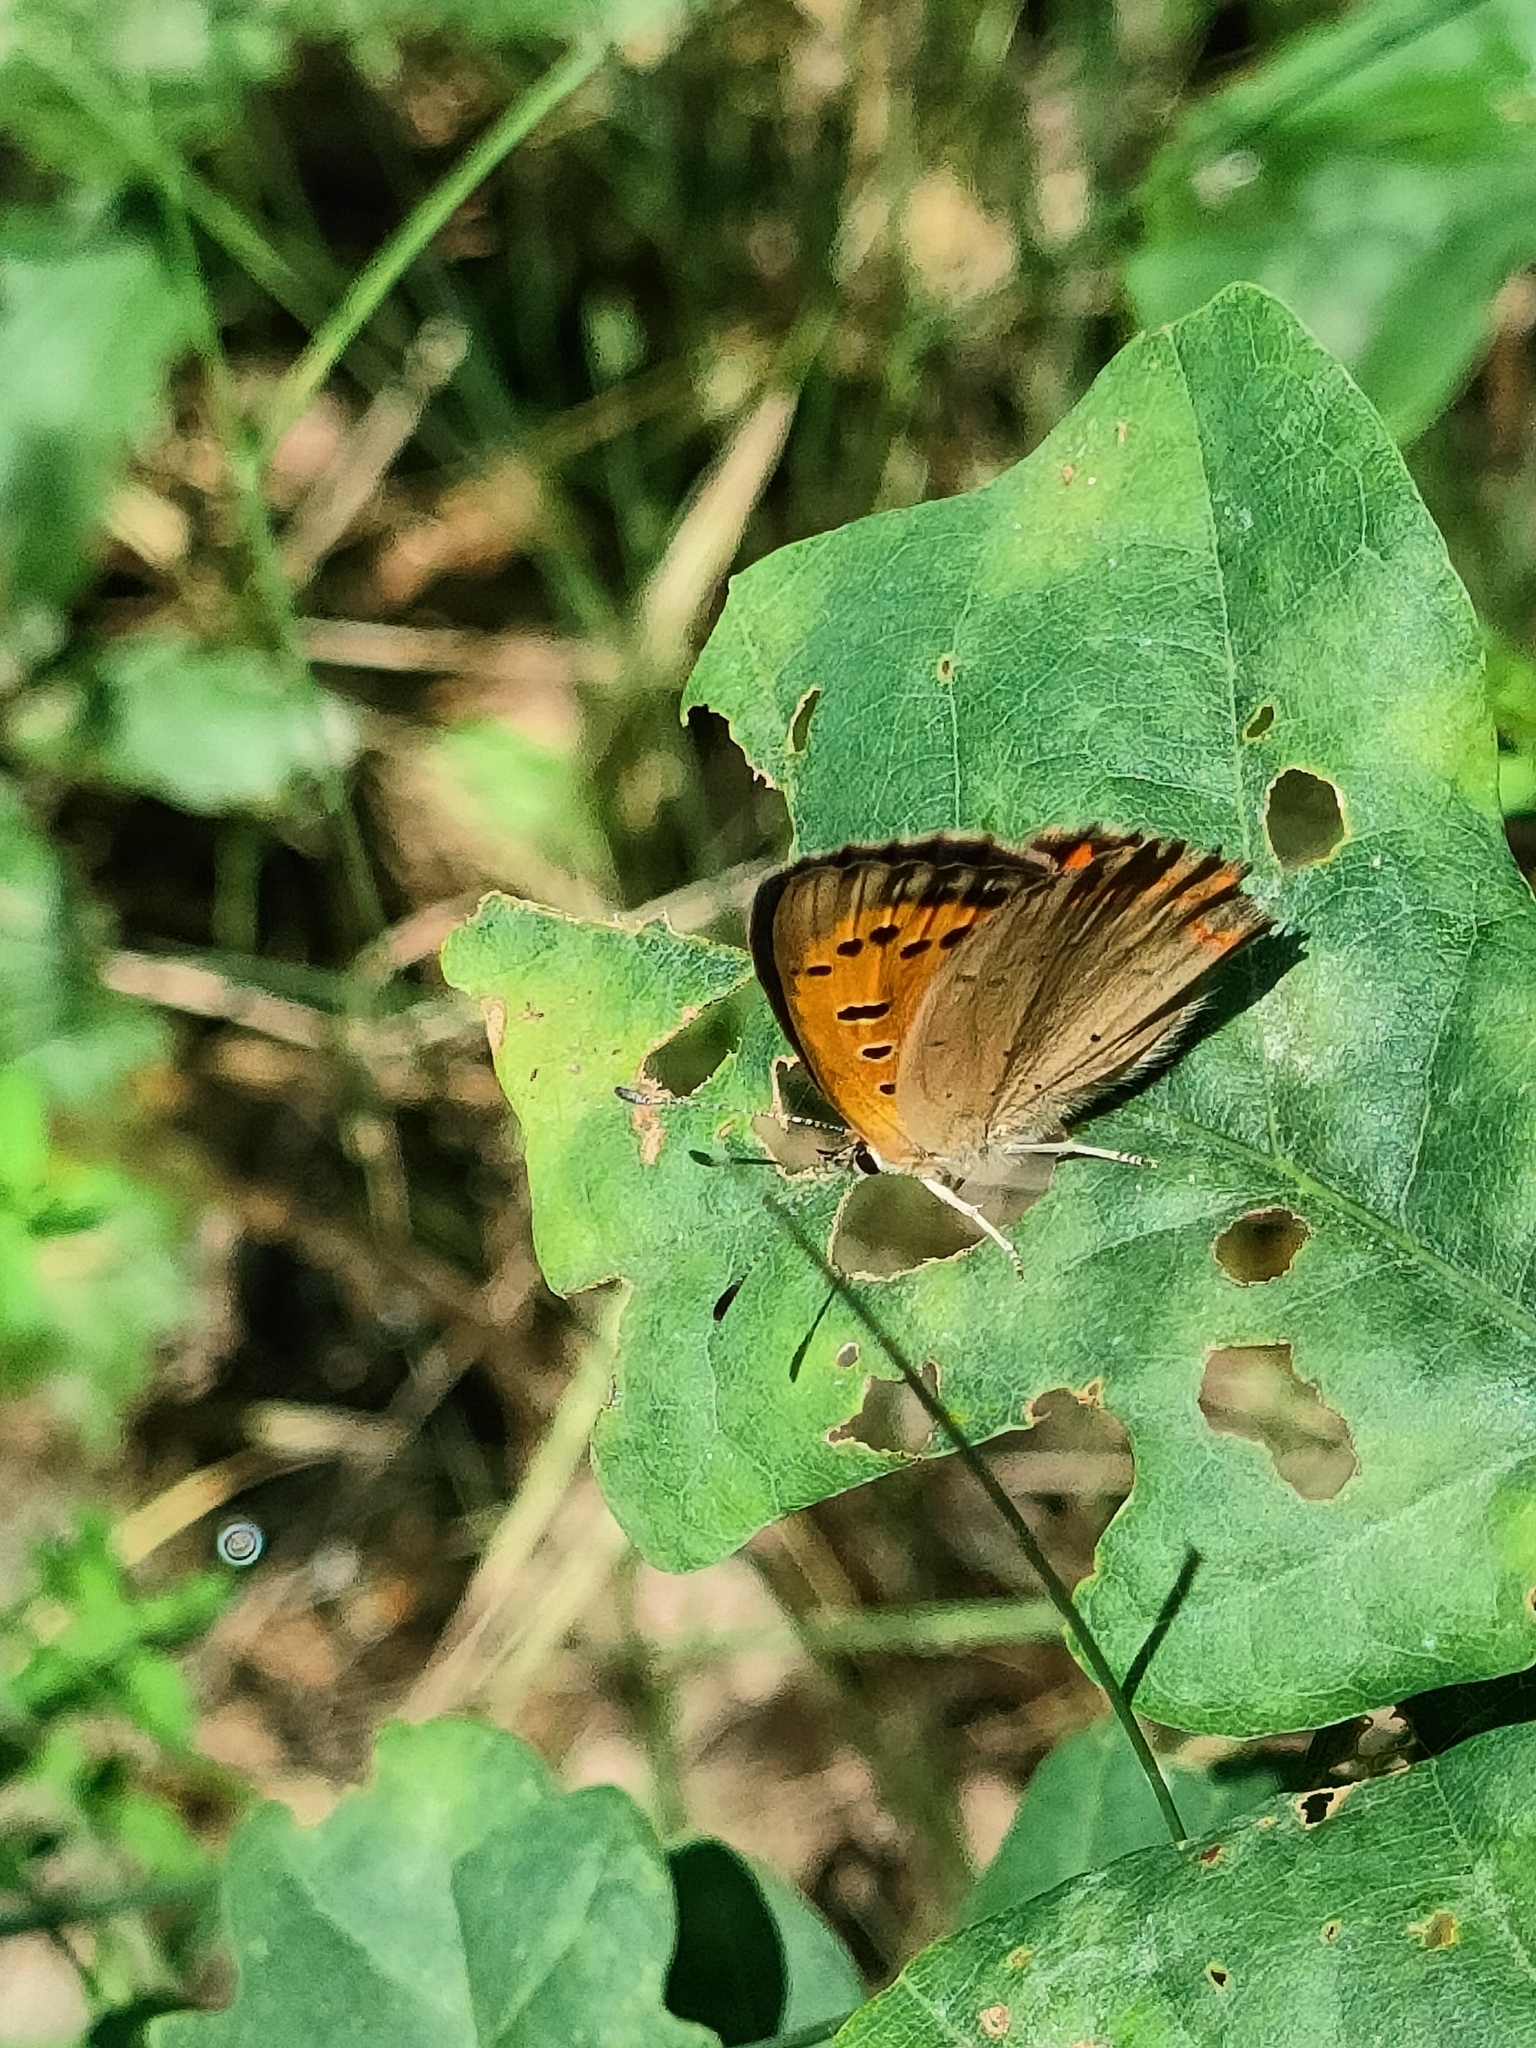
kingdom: Animalia
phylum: Arthropoda
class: Insecta
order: Lepidoptera
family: Lycaenidae
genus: Lycaena
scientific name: Lycaena phlaeas
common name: Small copper
